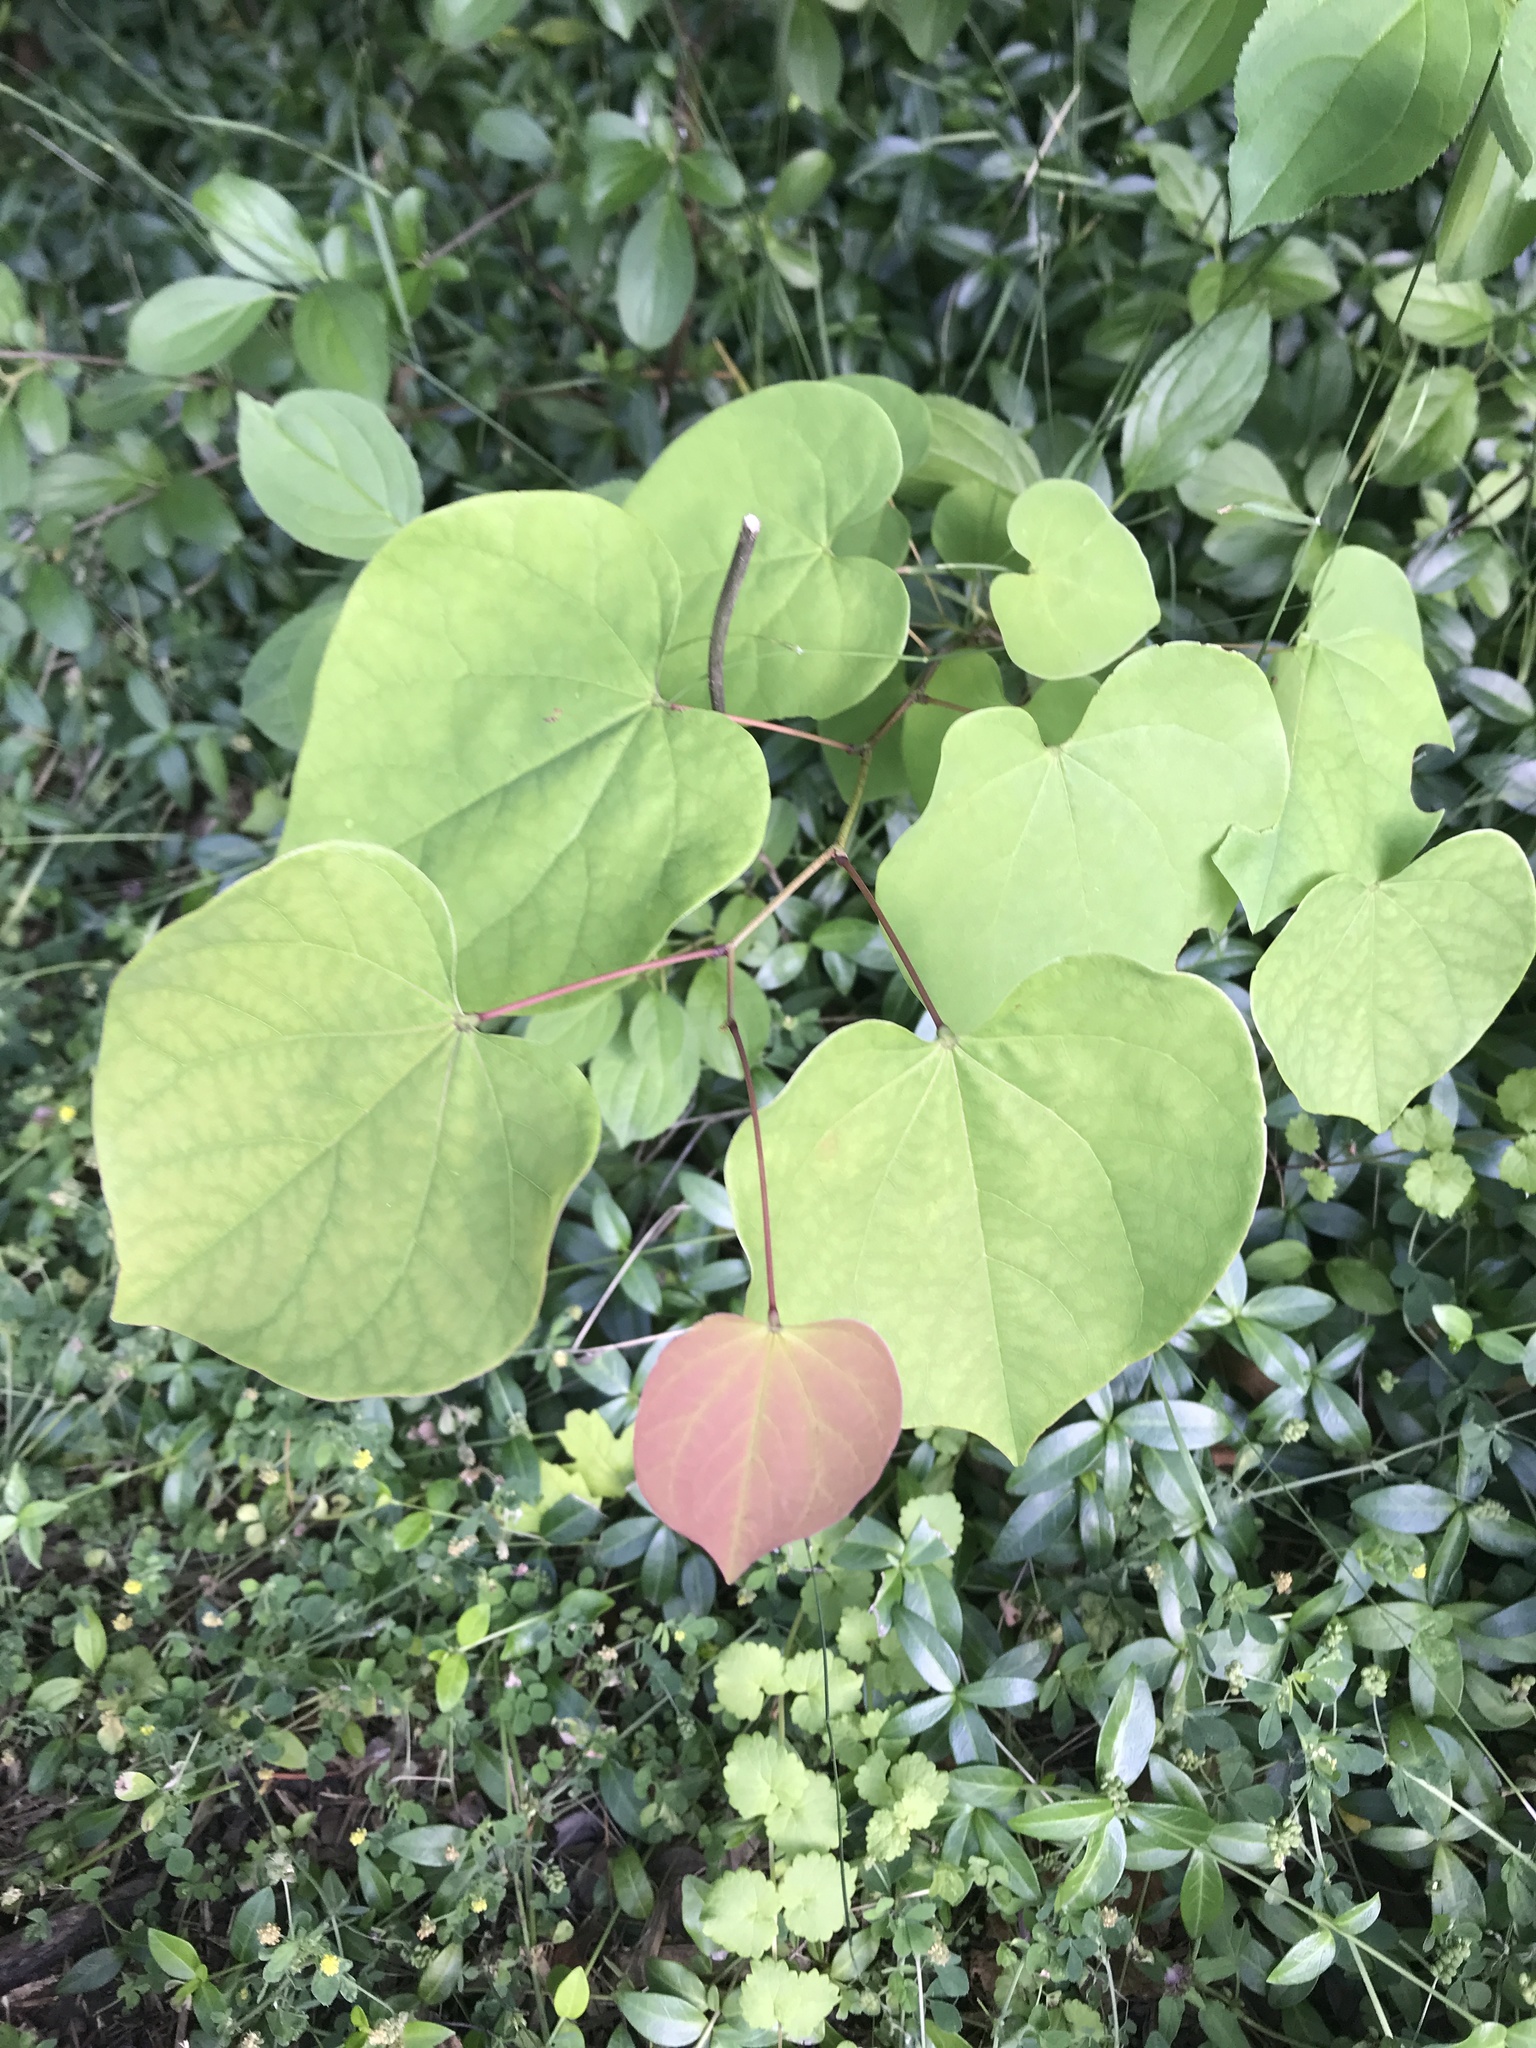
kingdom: Plantae
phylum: Tracheophyta
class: Magnoliopsida
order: Fabales
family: Fabaceae
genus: Cercis
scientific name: Cercis canadensis
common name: Eastern redbud
